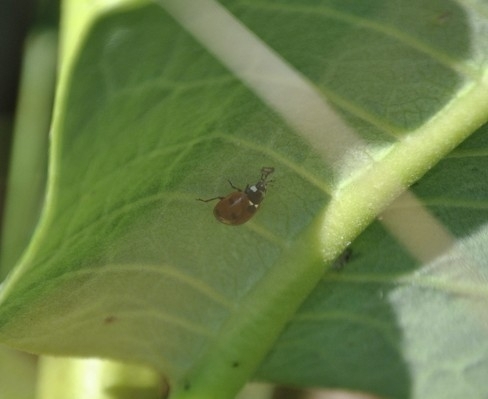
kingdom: Animalia
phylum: Arthropoda
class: Insecta
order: Coleoptera
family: Coccinellidae
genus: Coccinella
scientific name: Coccinella septempunctata
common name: Sevenspotted lady beetle
